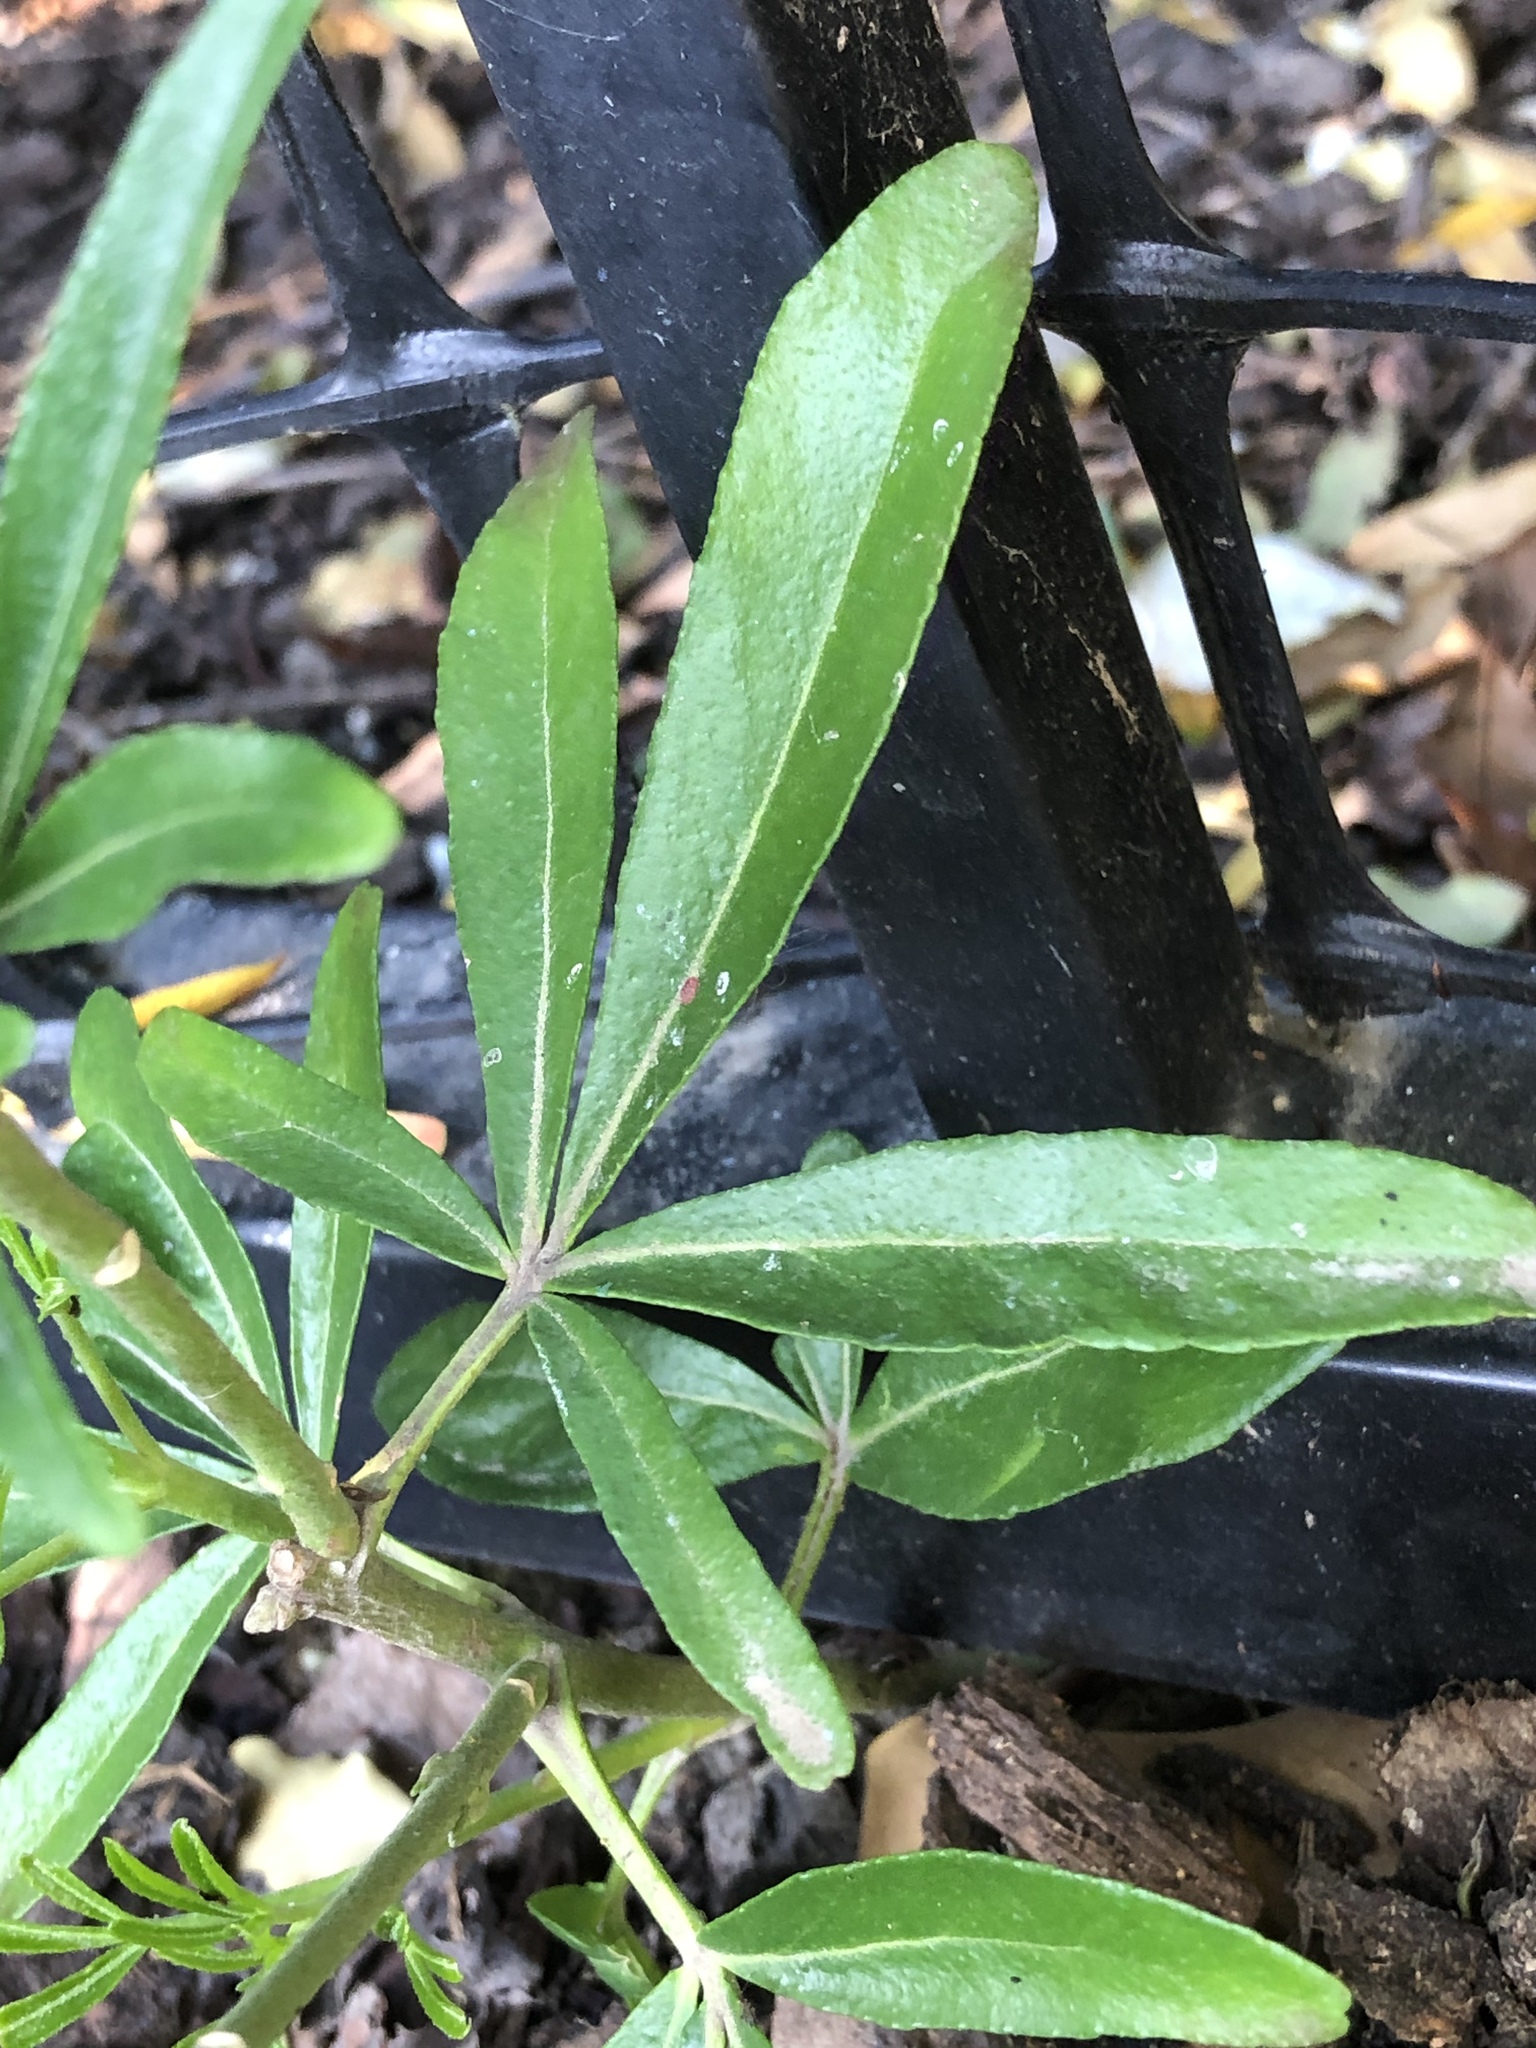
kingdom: Plantae
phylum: Tracheophyta
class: Magnoliopsida
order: Sapindales
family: Rutaceae
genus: Choisya
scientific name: Choisya ternata
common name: Mexican orange
